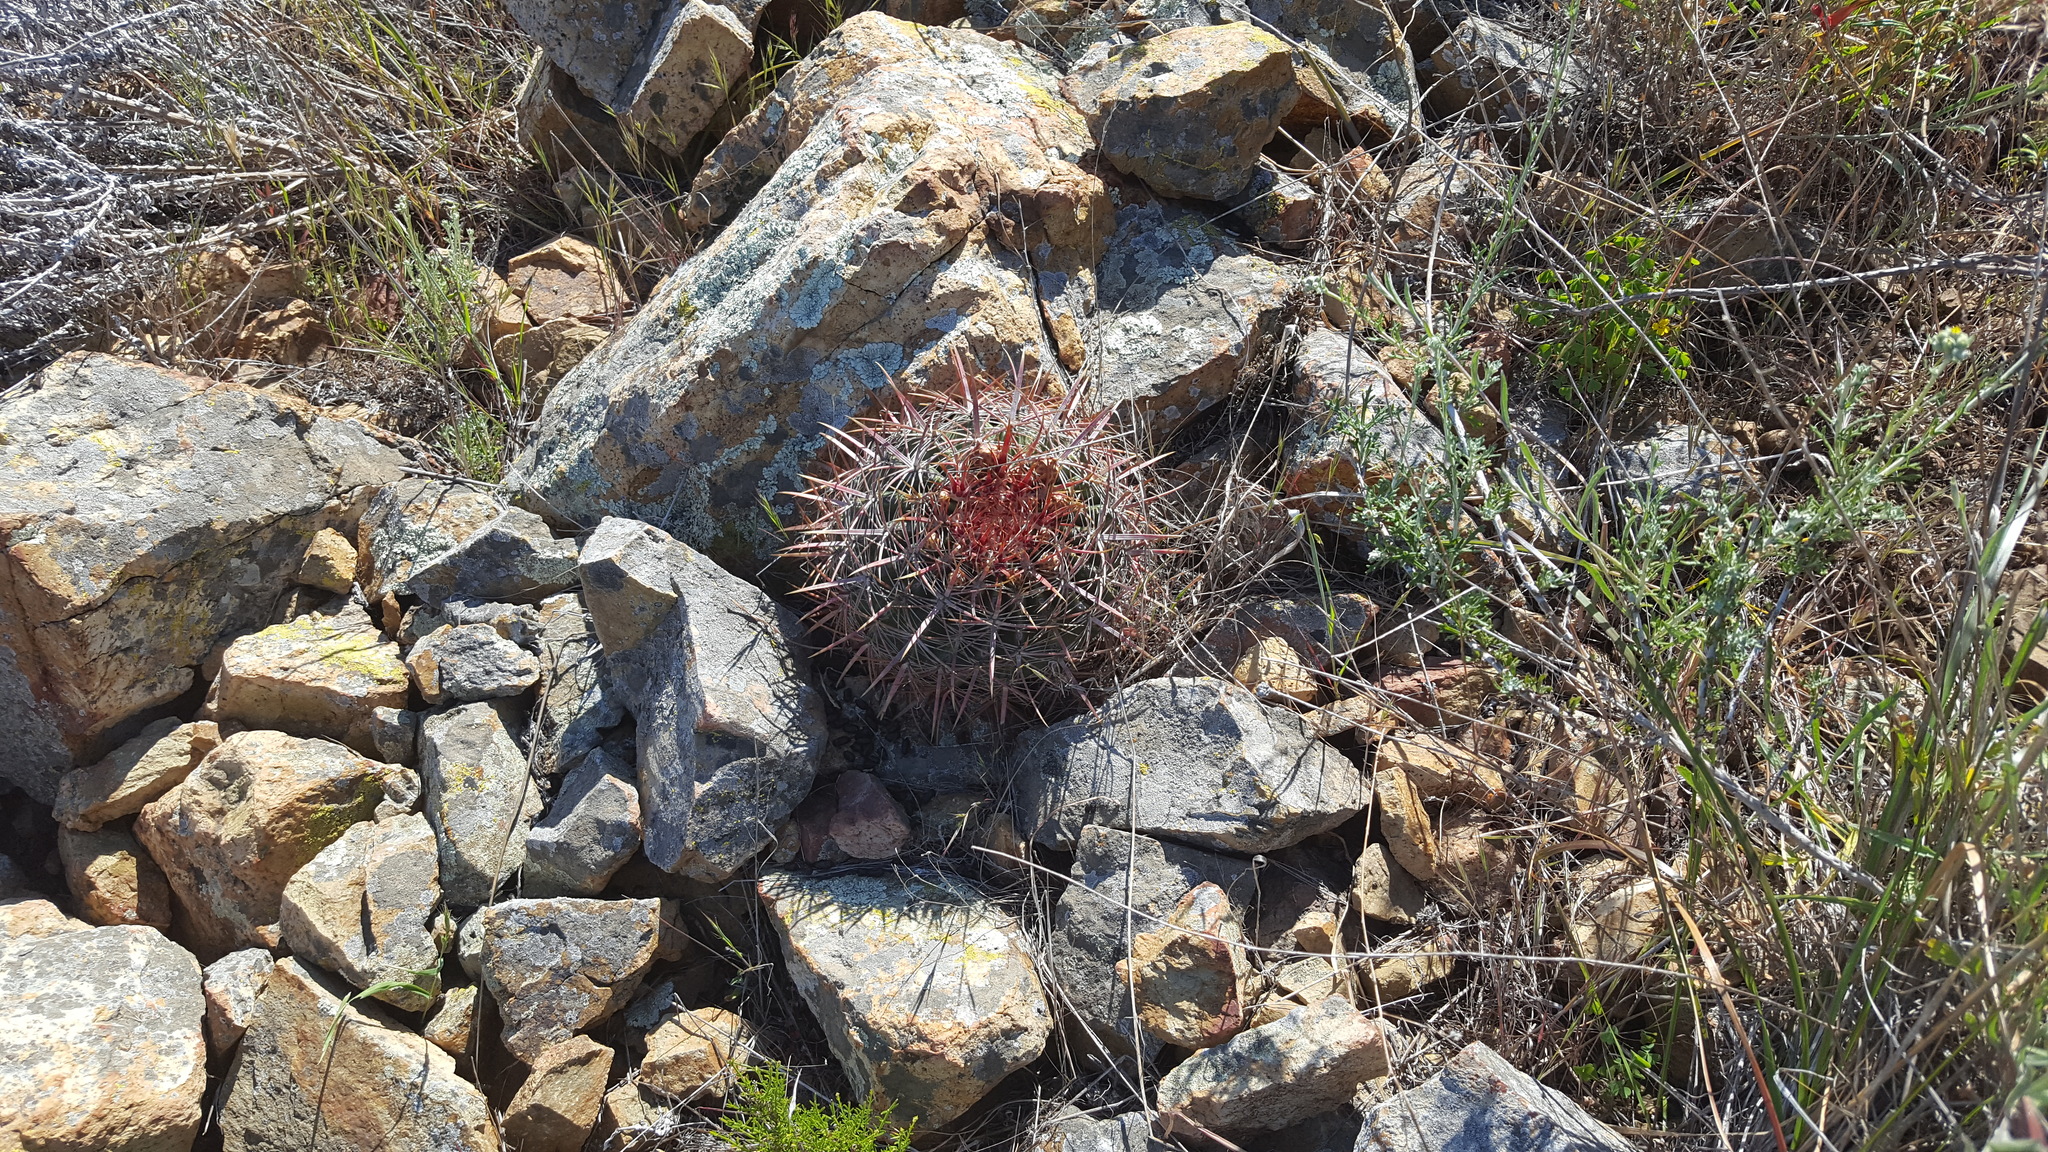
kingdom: Plantae
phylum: Tracheophyta
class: Magnoliopsida
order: Caryophyllales
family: Cactaceae
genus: Ferocactus
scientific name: Ferocactus viridescens
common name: San diego barrel cactus
